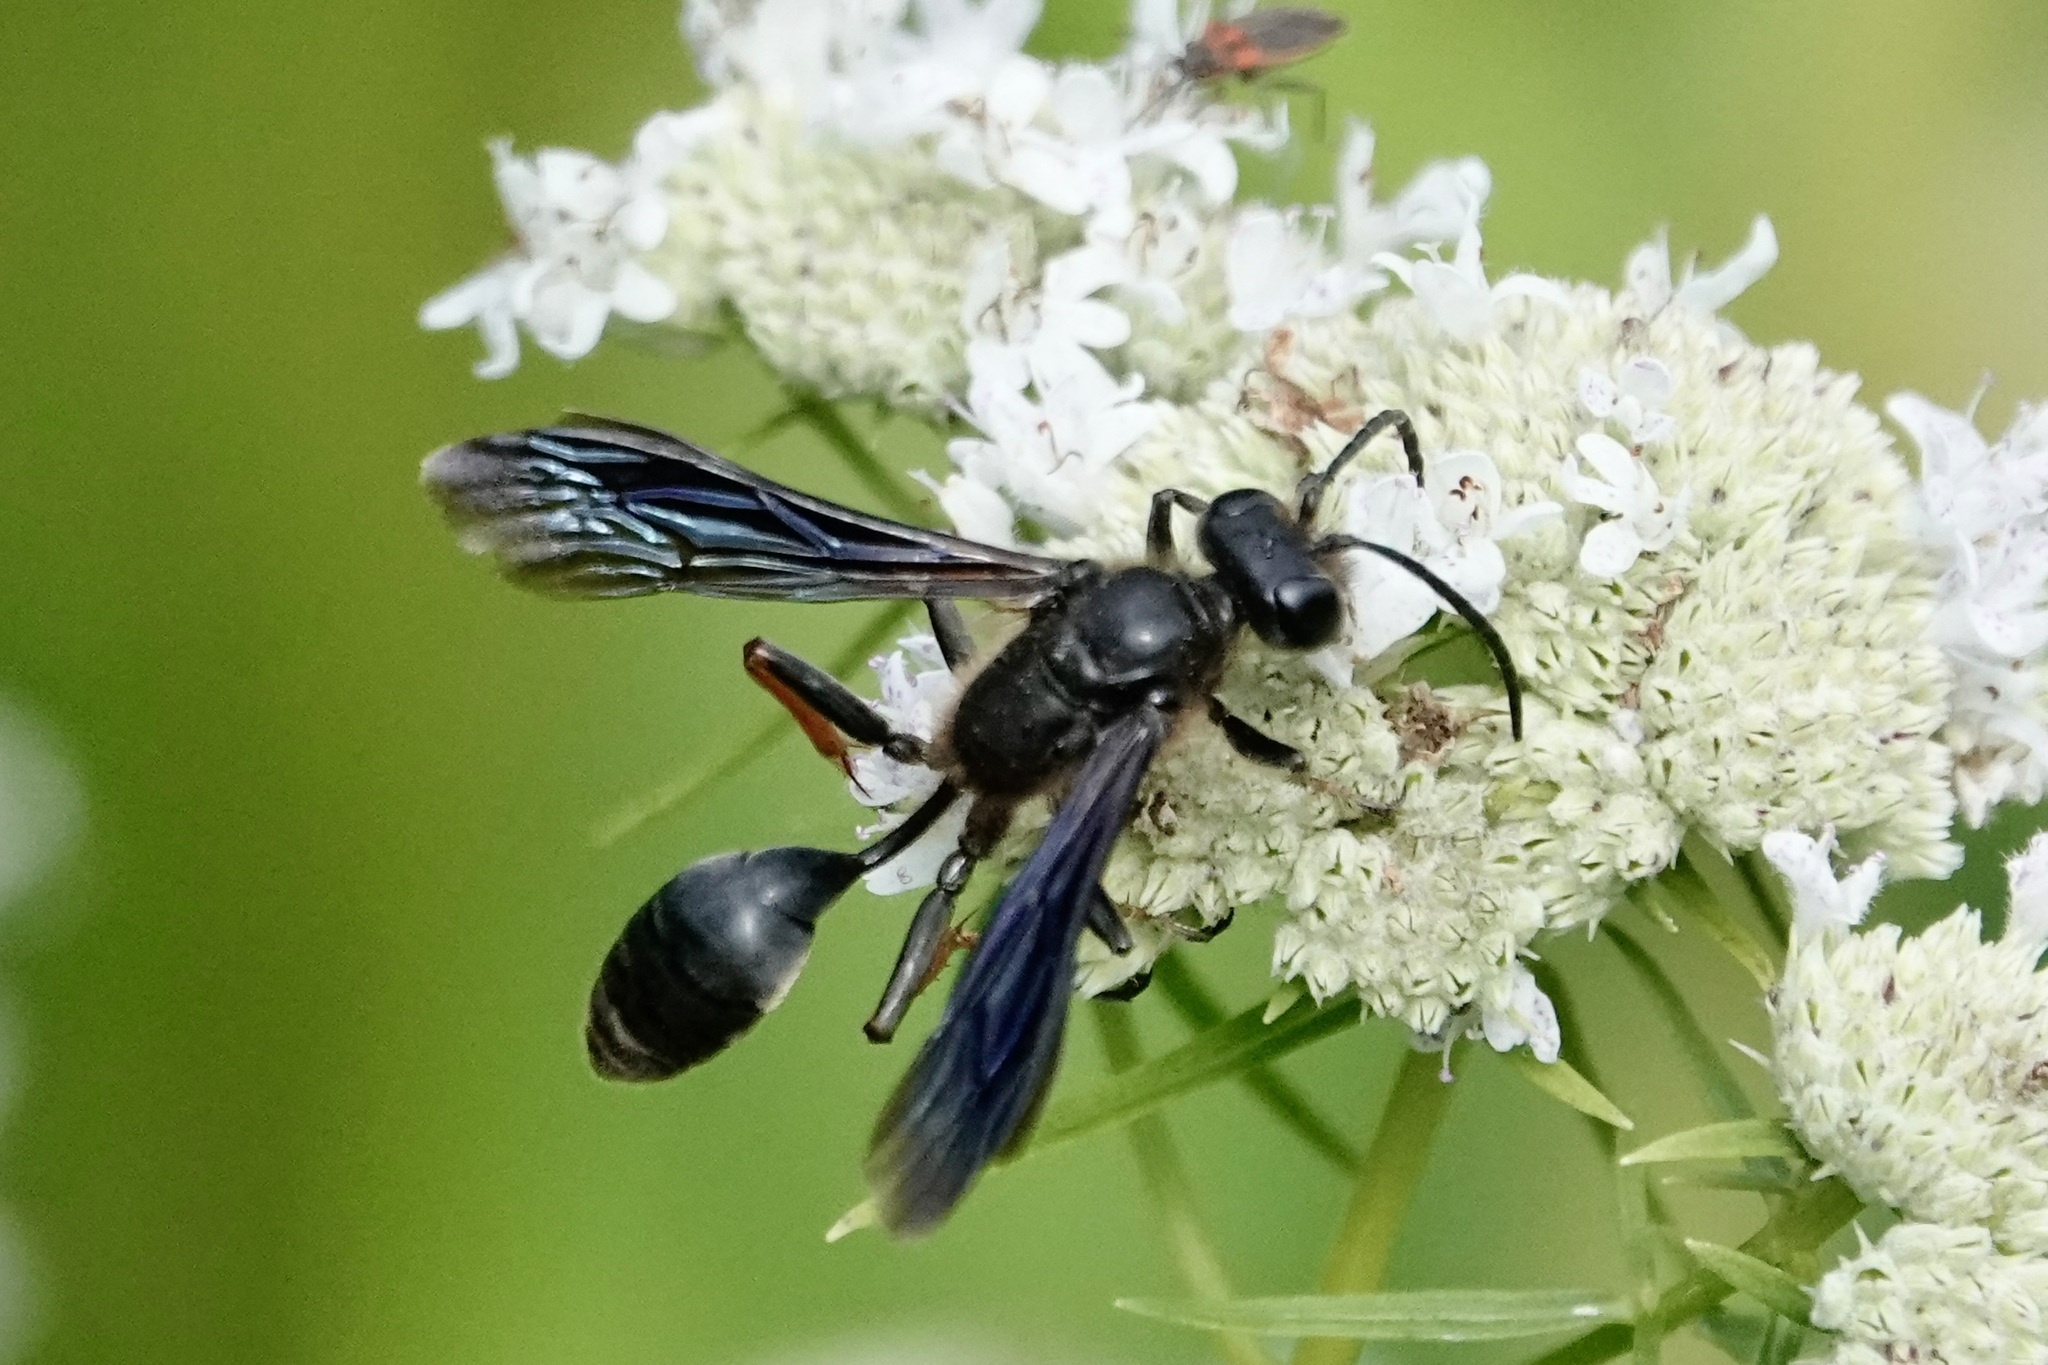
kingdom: Animalia
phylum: Arthropoda
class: Insecta
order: Hymenoptera
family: Sphecidae
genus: Isodontia
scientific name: Isodontia auripes
